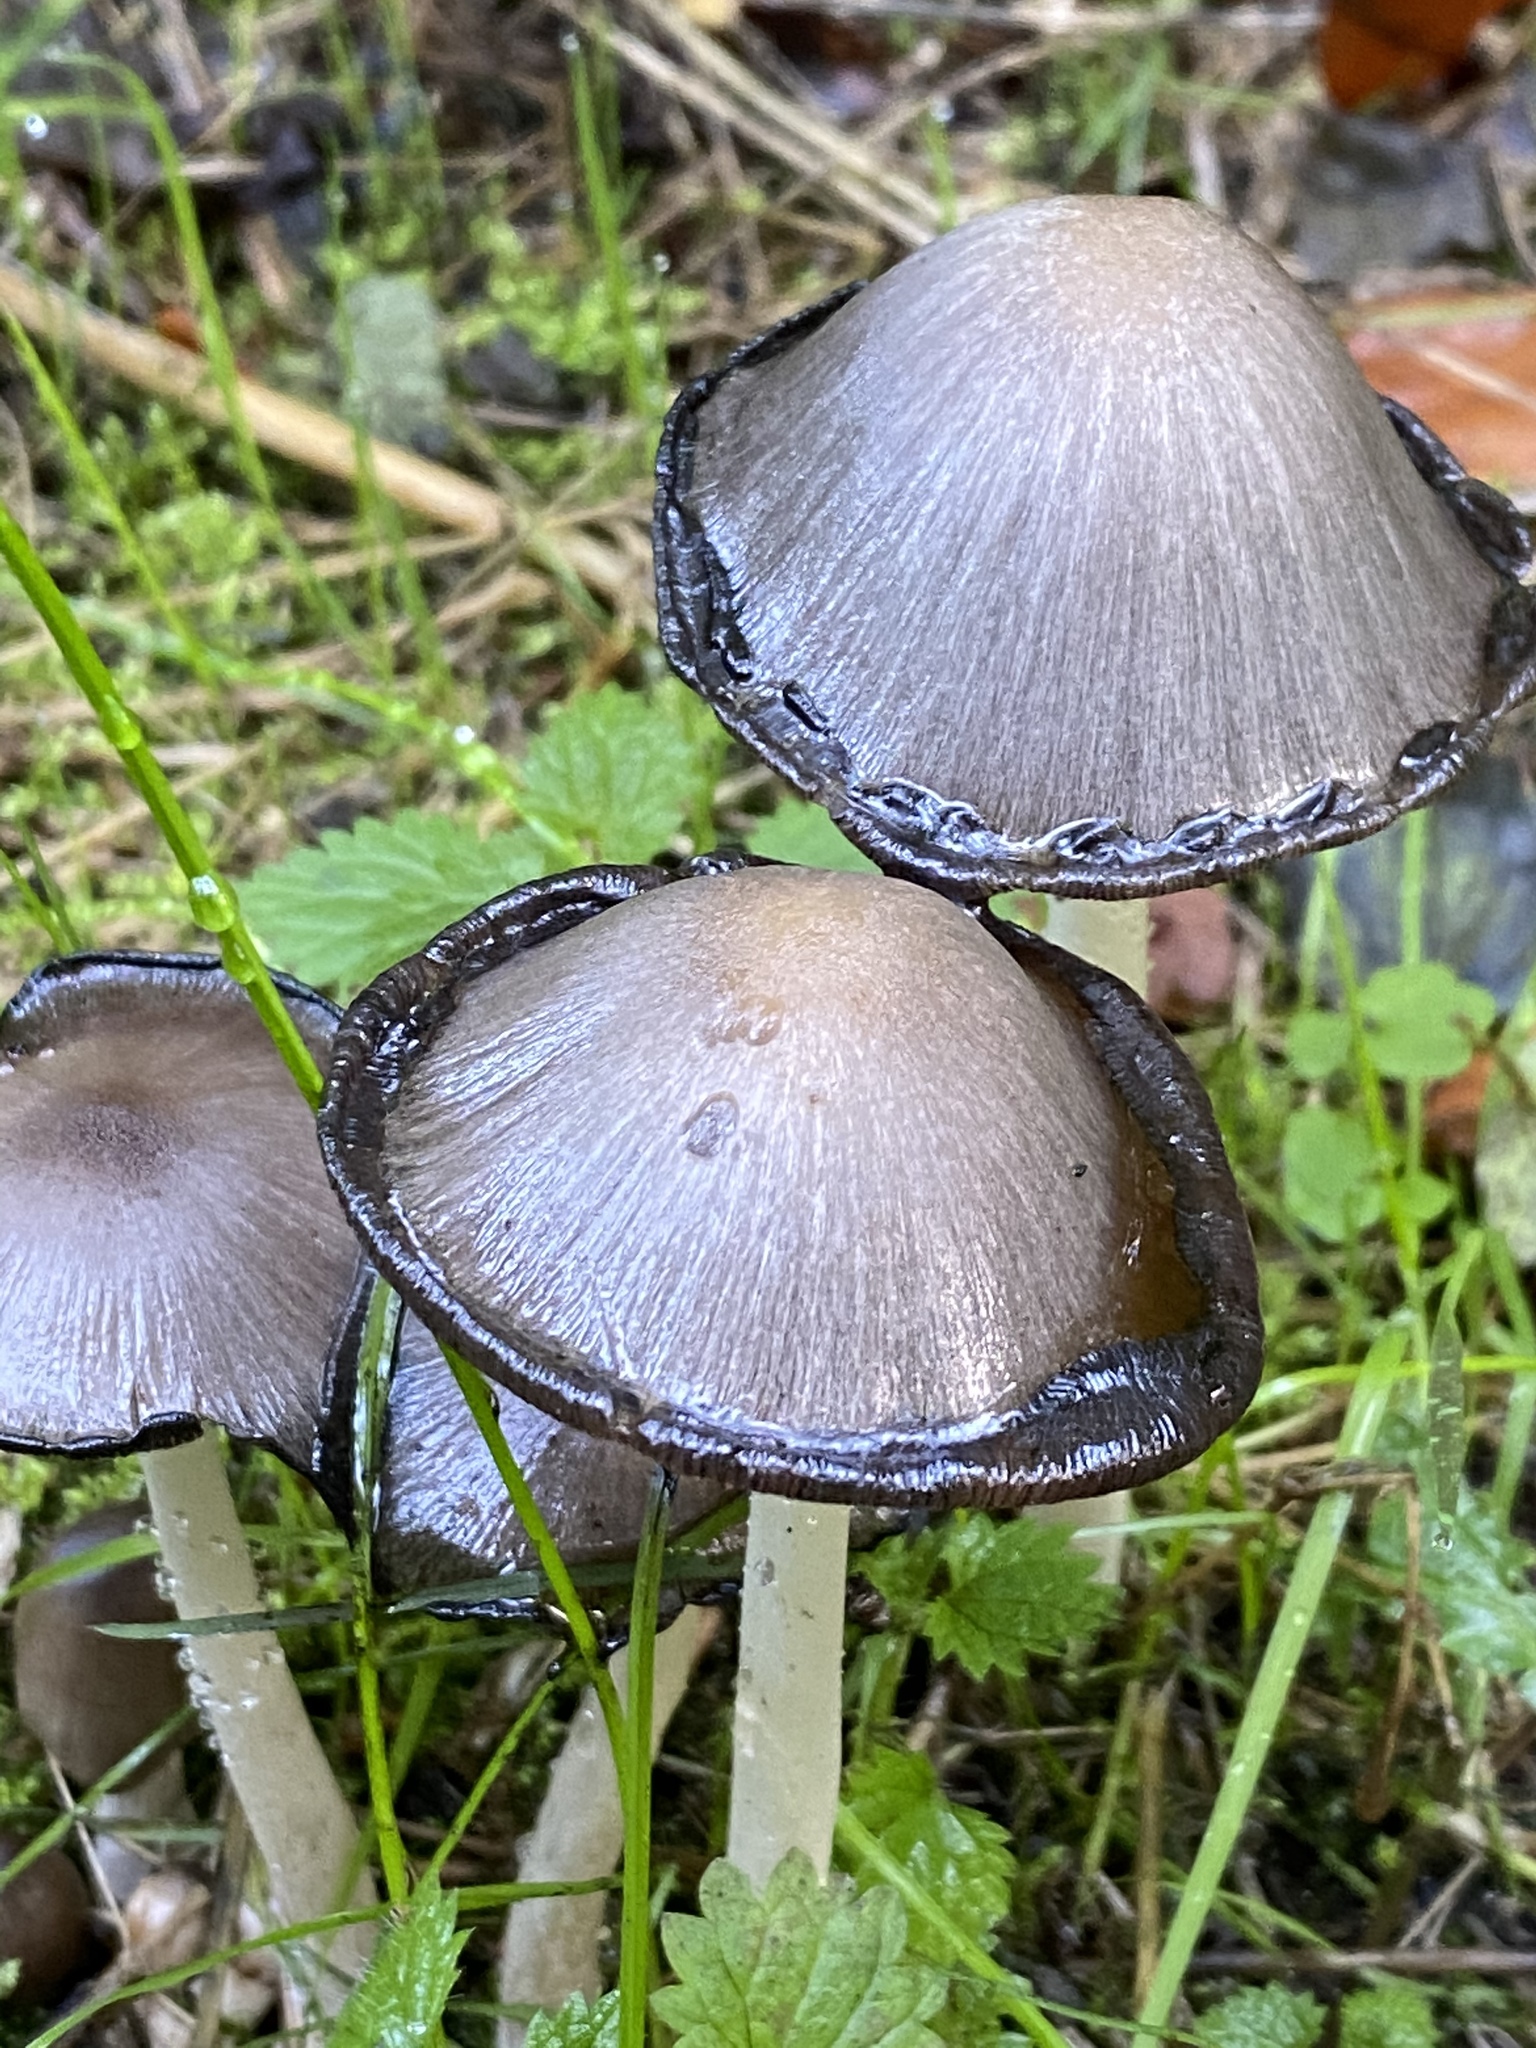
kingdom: Fungi
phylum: Basidiomycota
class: Agaricomycetes
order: Agaricales
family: Psathyrellaceae
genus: Coprinopsis
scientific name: Coprinopsis atramentaria
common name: Common ink-cap
